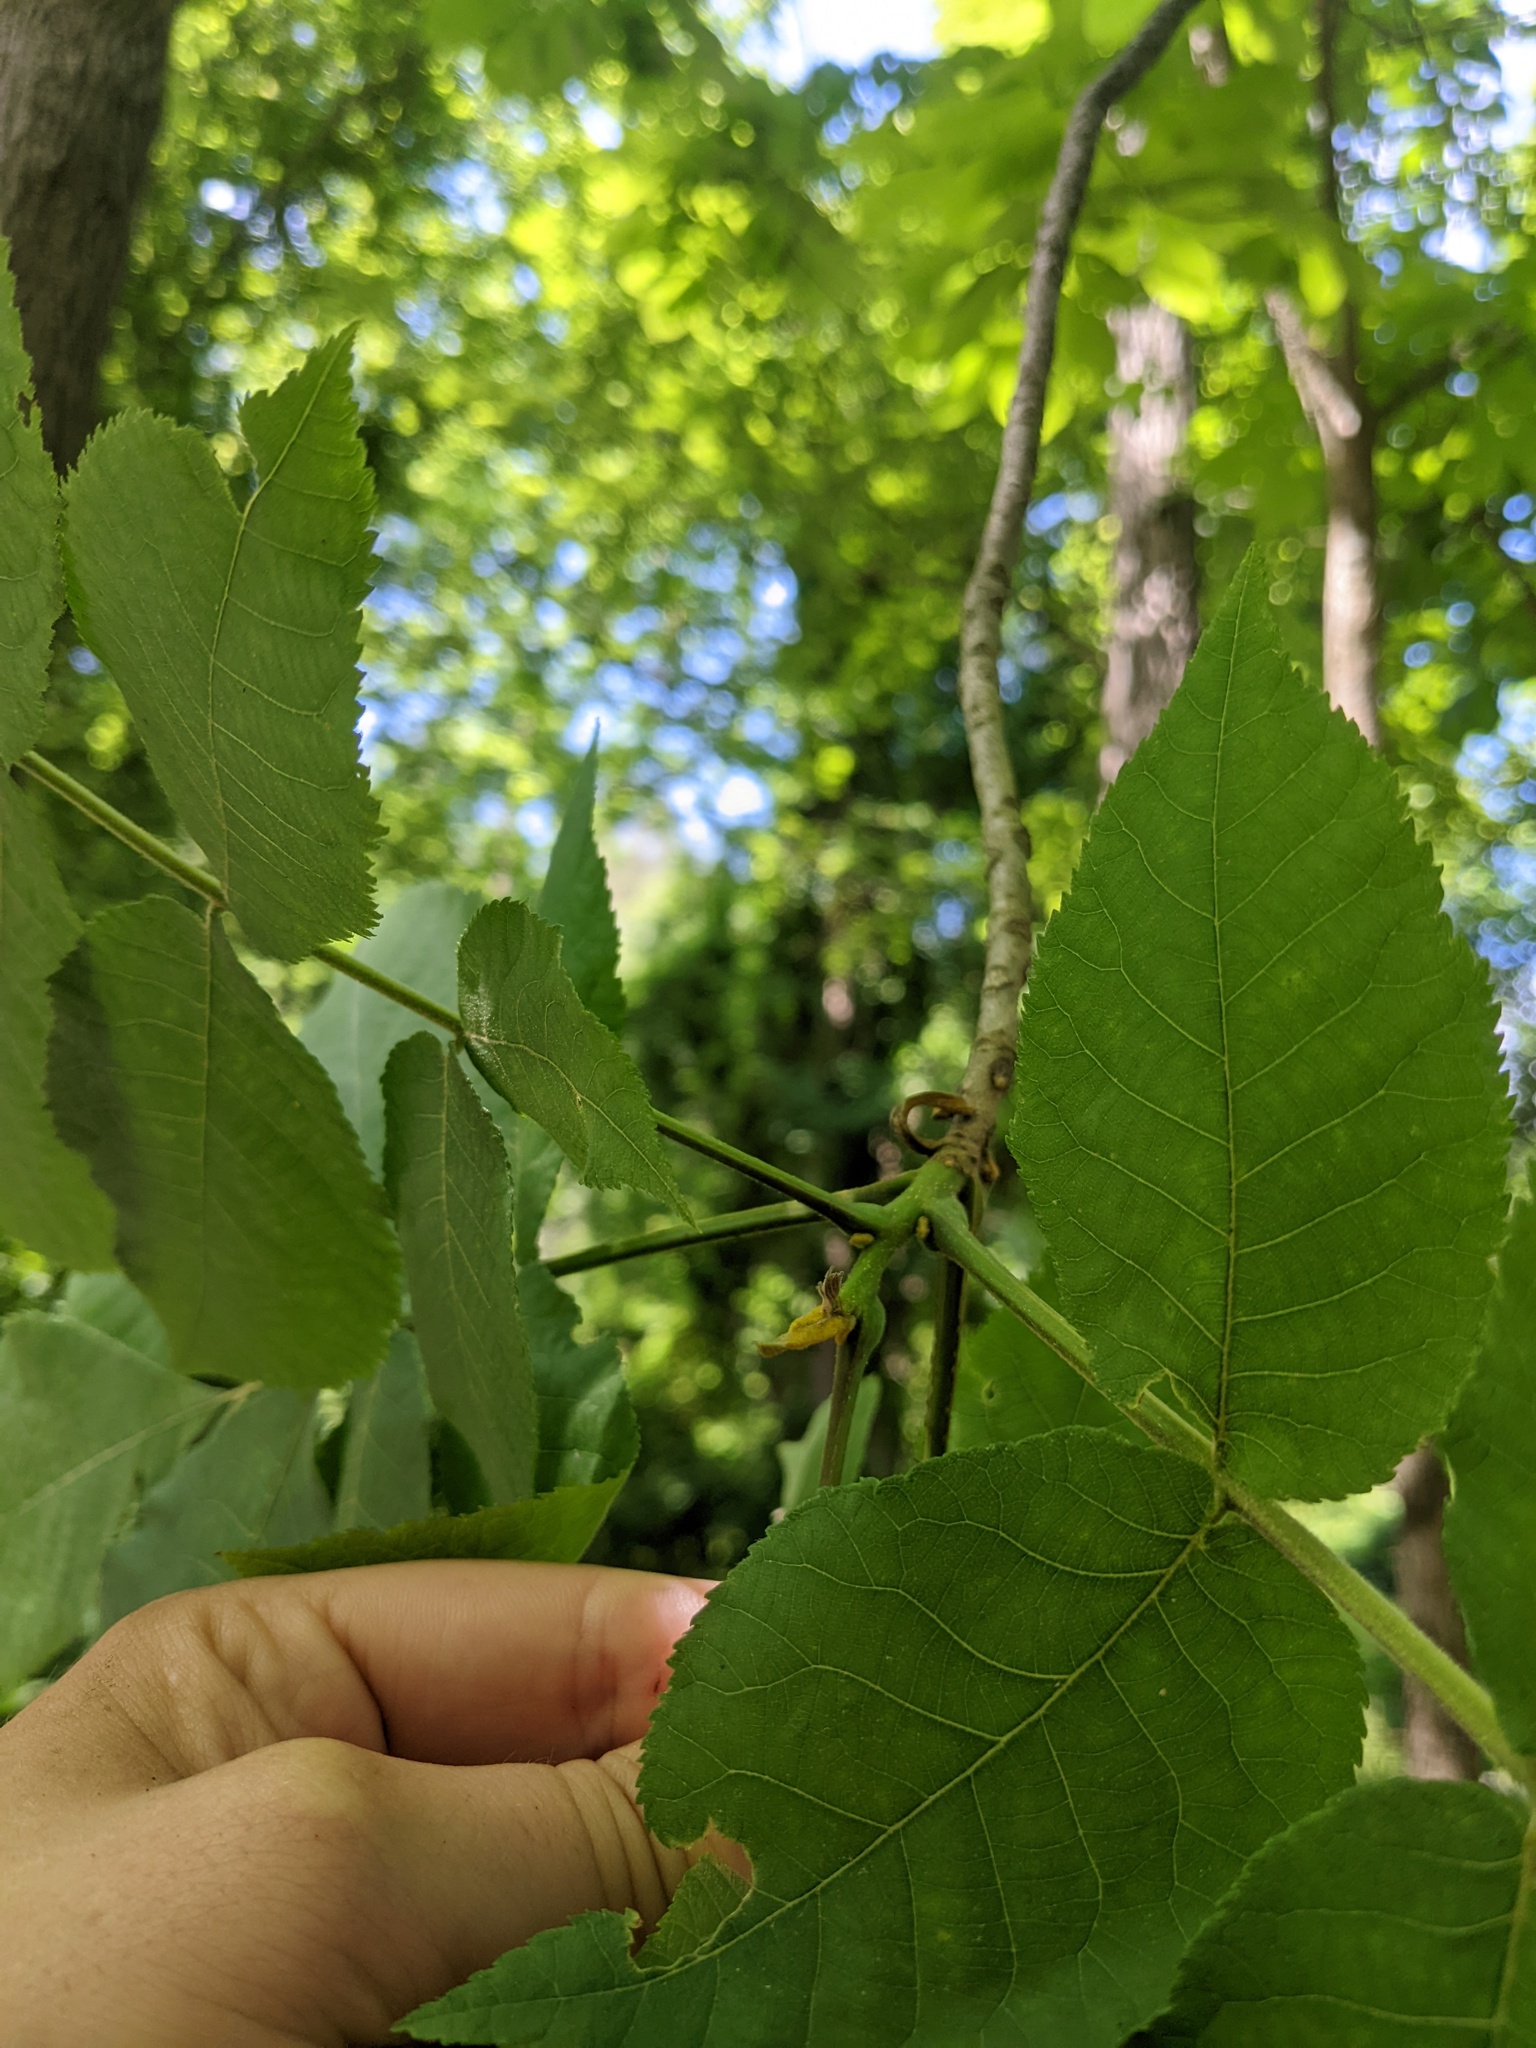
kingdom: Plantae
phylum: Tracheophyta
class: Magnoliopsida
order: Fagales
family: Juglandaceae
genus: Carya
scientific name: Carya cordiformis
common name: Bitternut hickory
